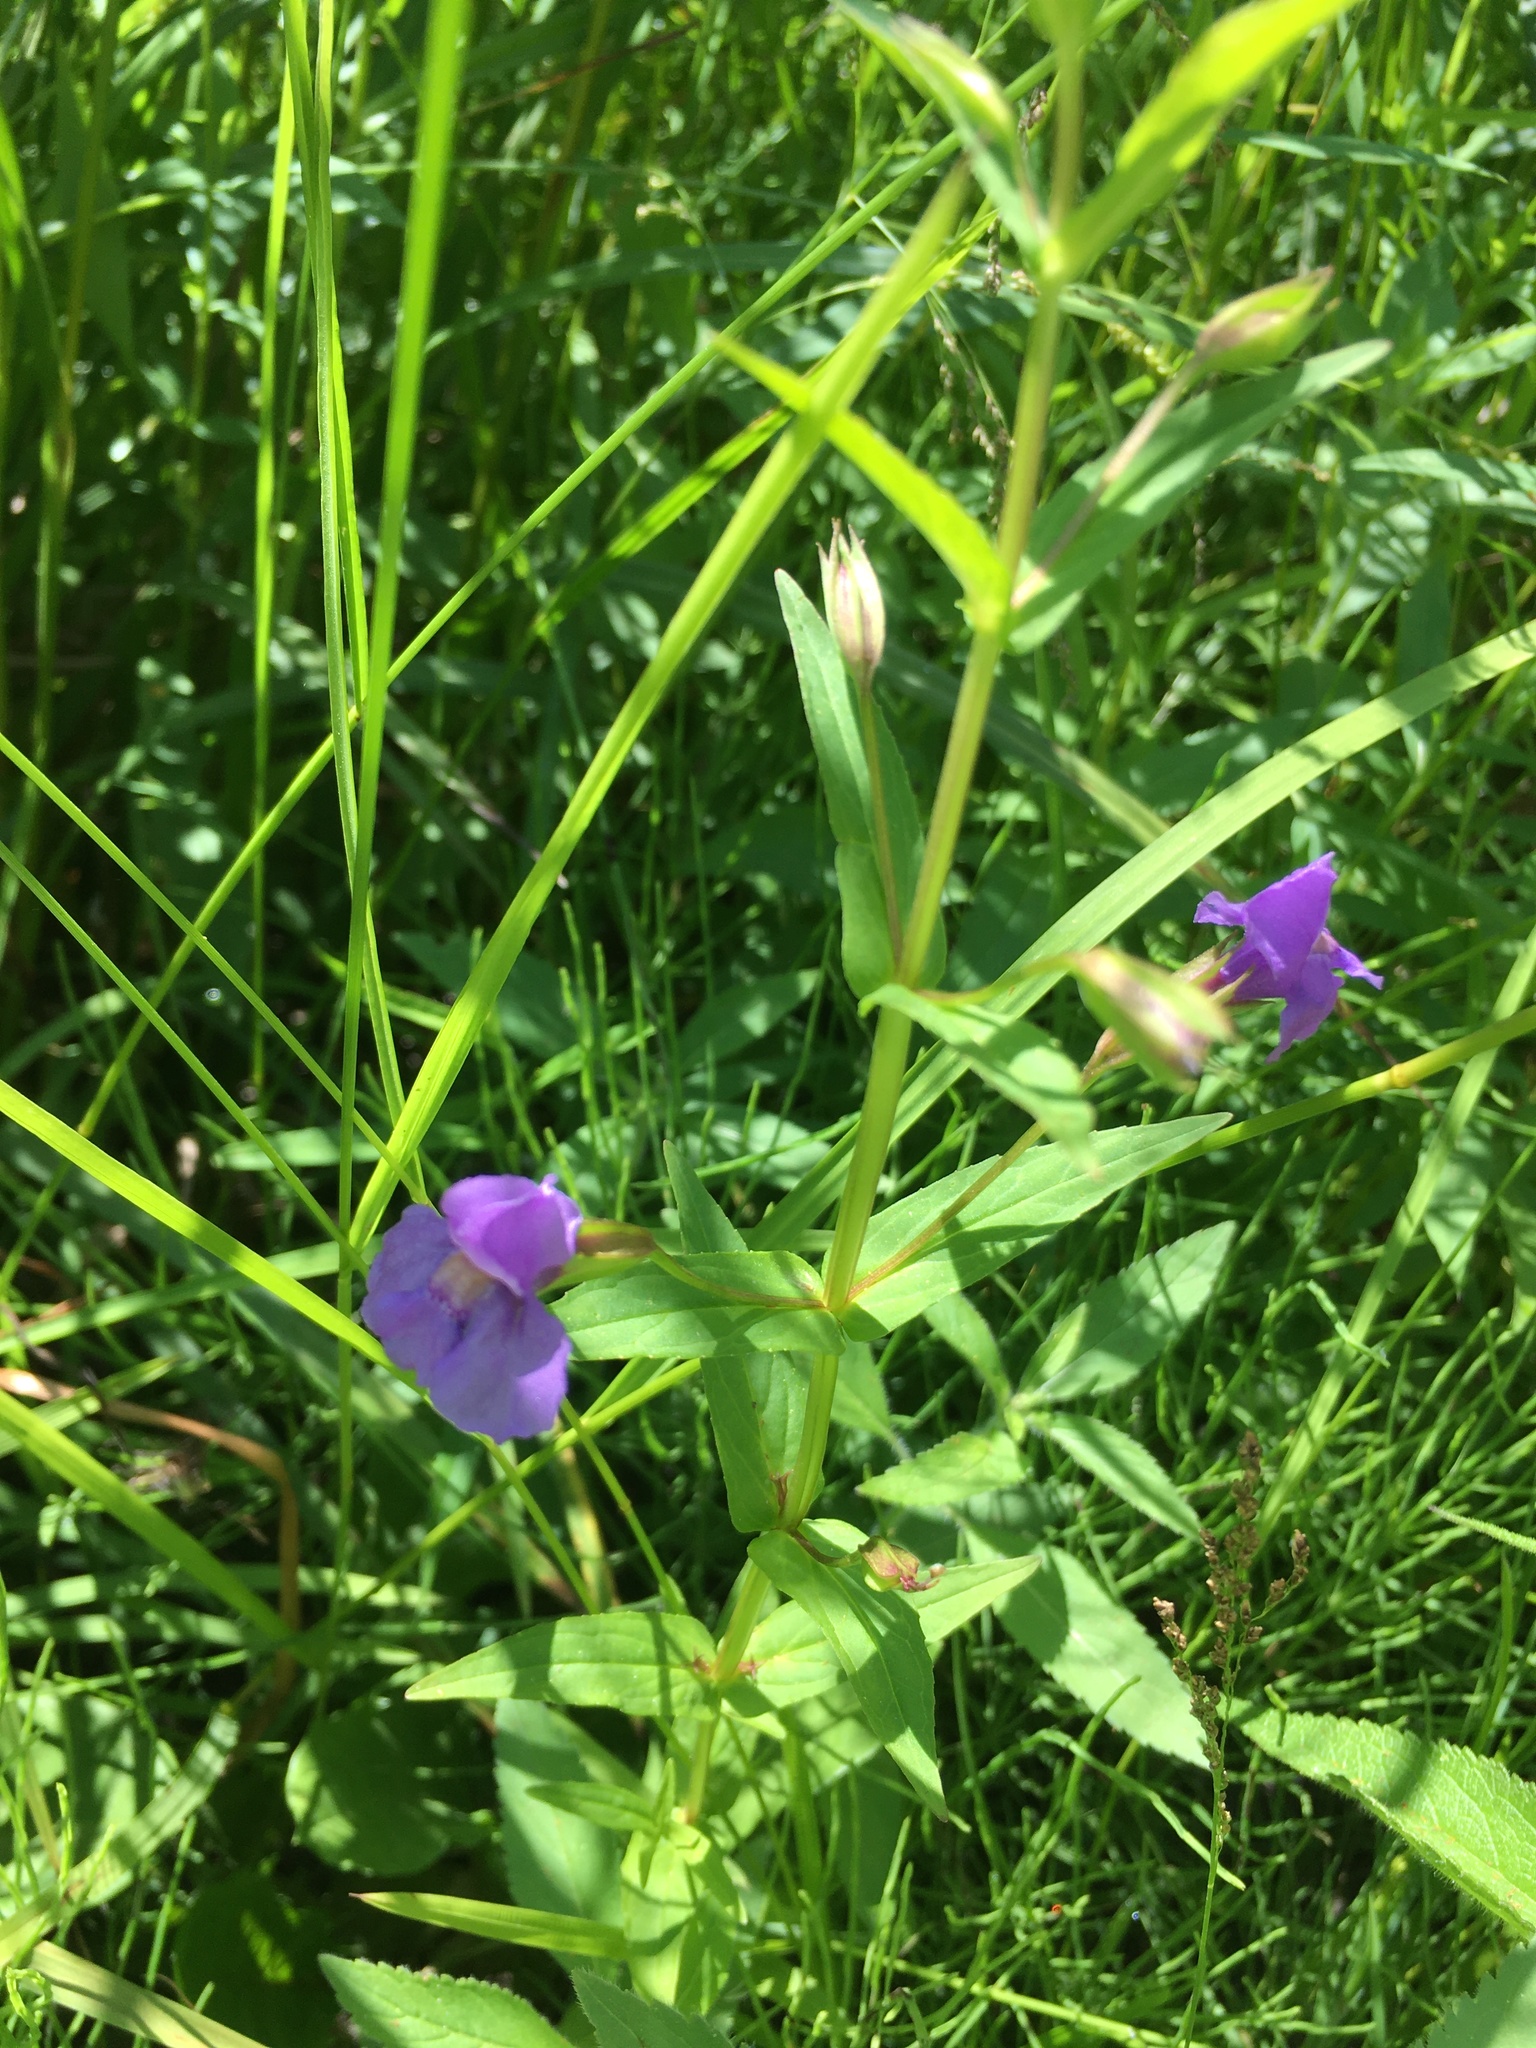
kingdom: Plantae
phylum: Tracheophyta
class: Magnoliopsida
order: Lamiales
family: Phrymaceae
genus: Mimulus
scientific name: Mimulus ringens
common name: Allegheny monkeyflower
